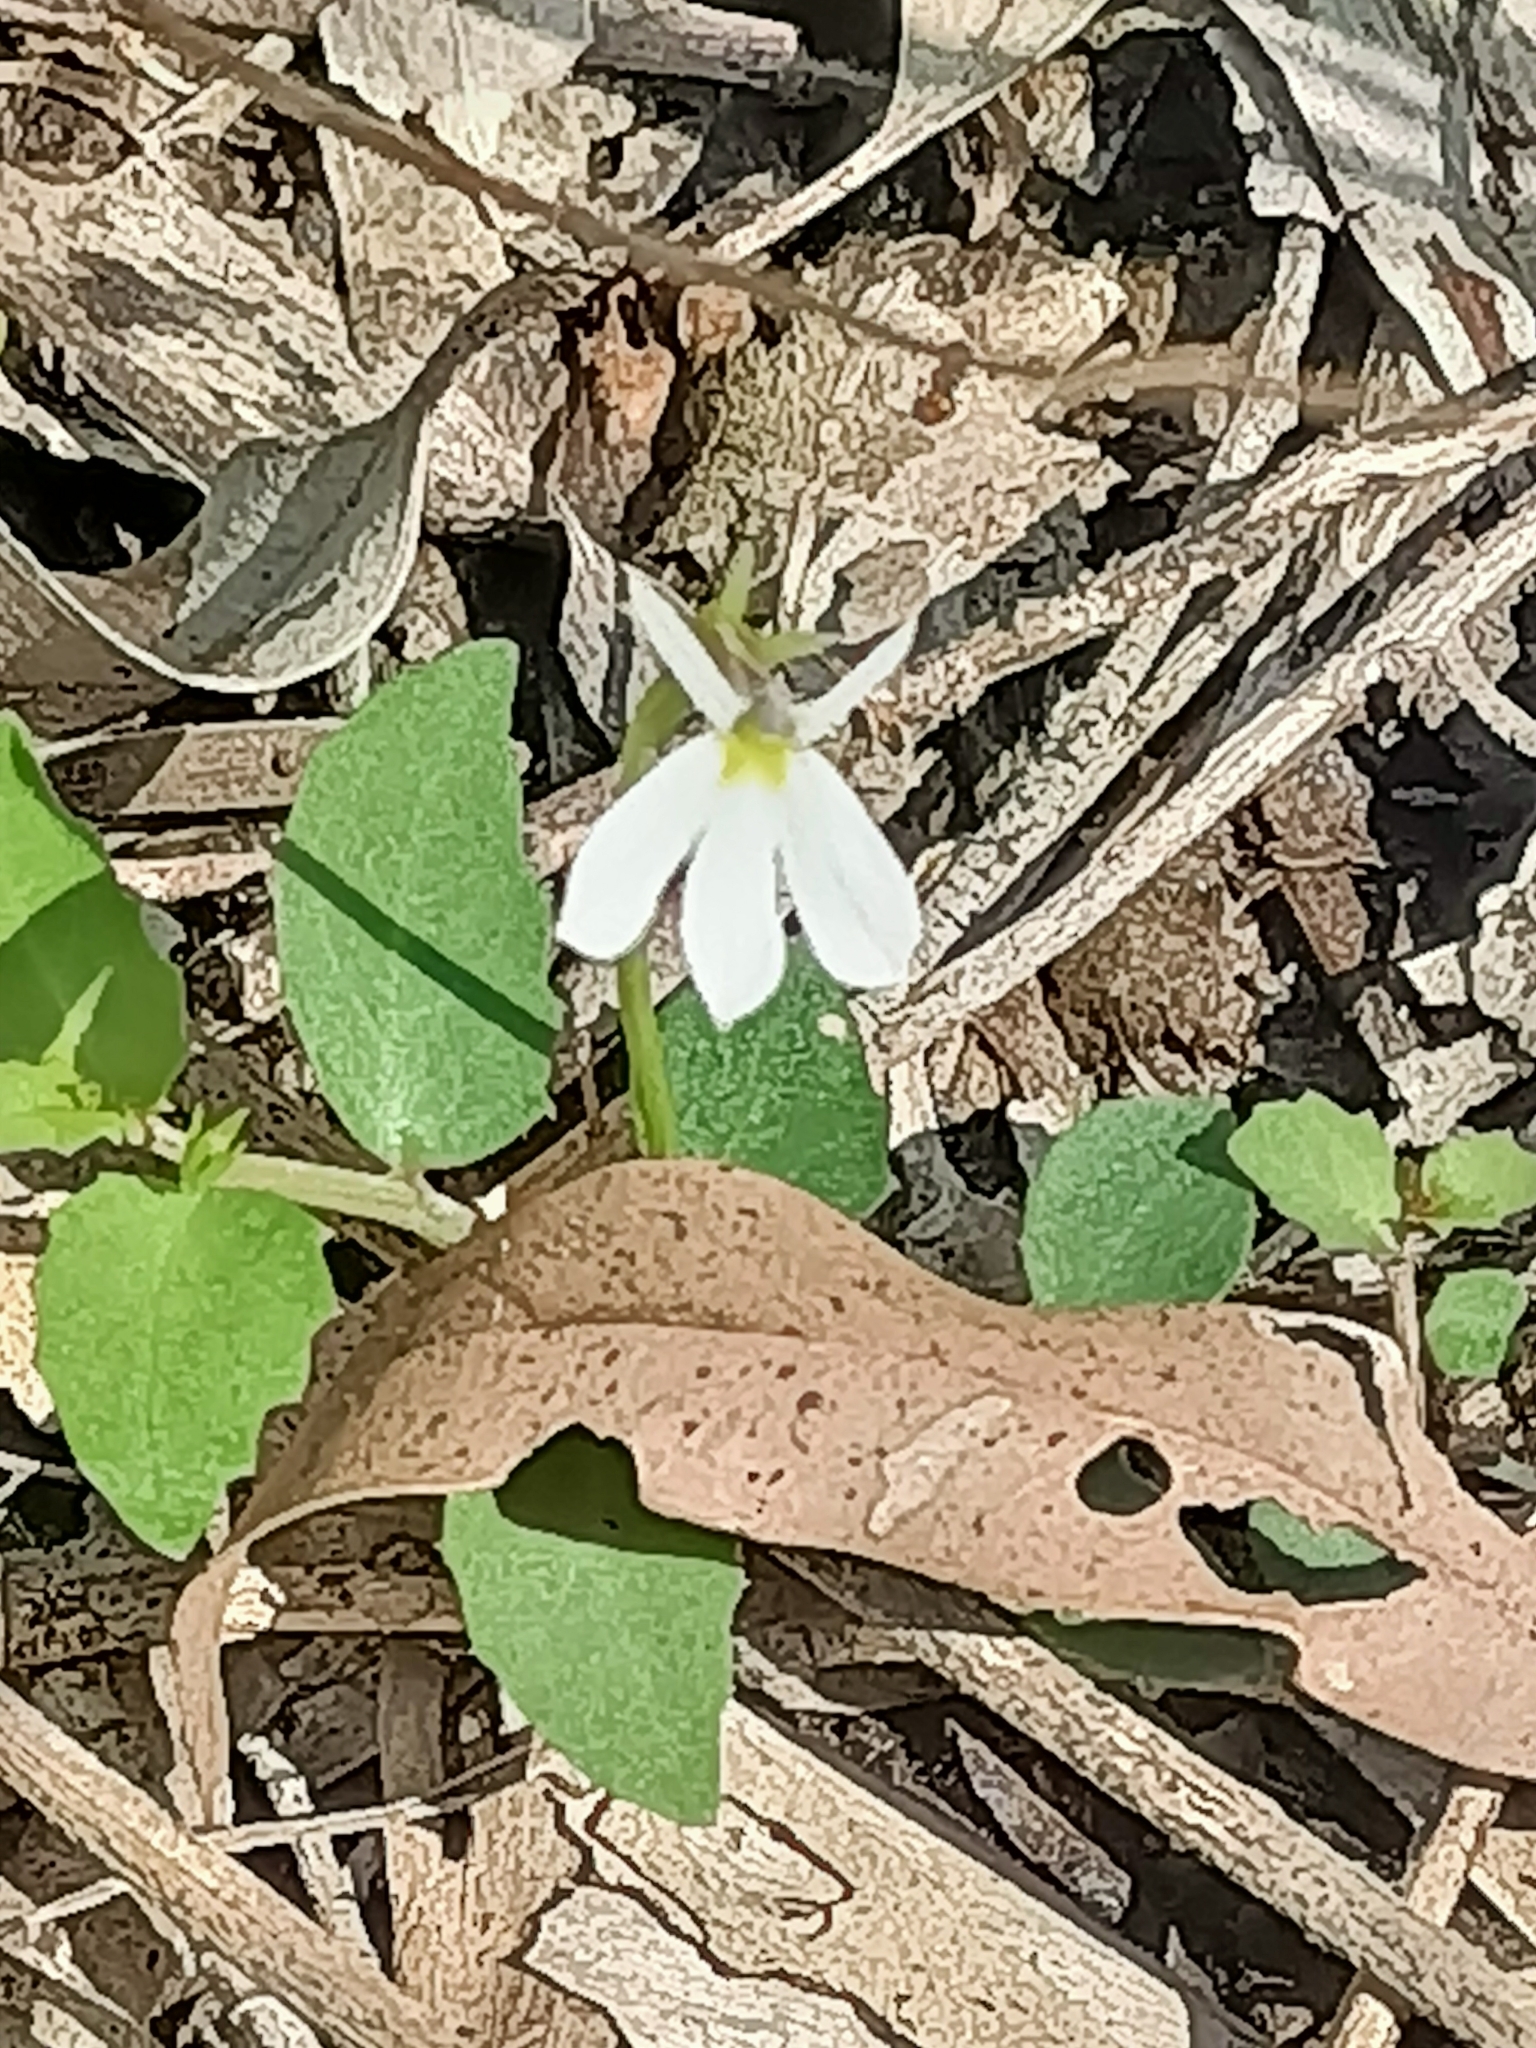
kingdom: Plantae
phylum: Tracheophyta
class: Magnoliopsida
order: Asterales
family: Campanulaceae
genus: Lobelia
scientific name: Lobelia purpurascens
